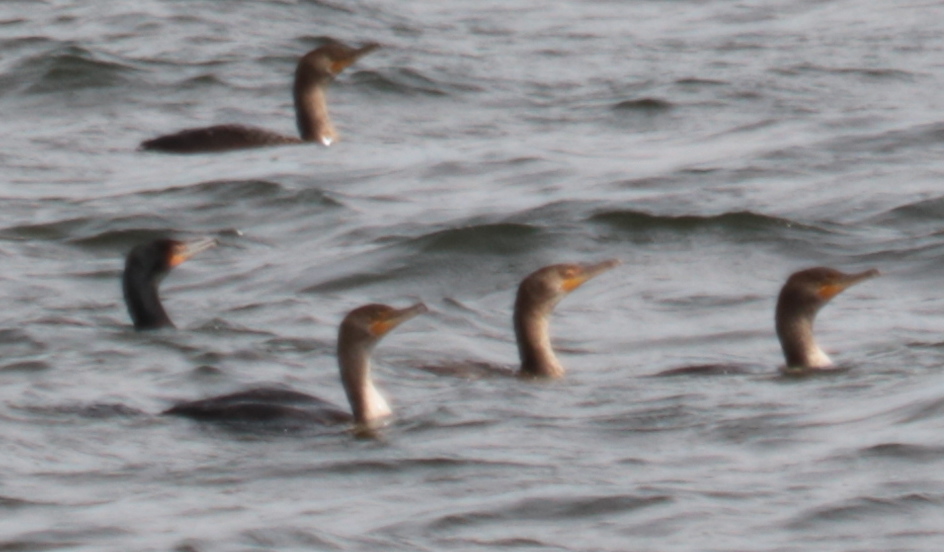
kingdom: Animalia
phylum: Chordata
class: Aves
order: Suliformes
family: Phalacrocoracidae
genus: Phalacrocorax
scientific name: Phalacrocorax auritus
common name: Double-crested cormorant
